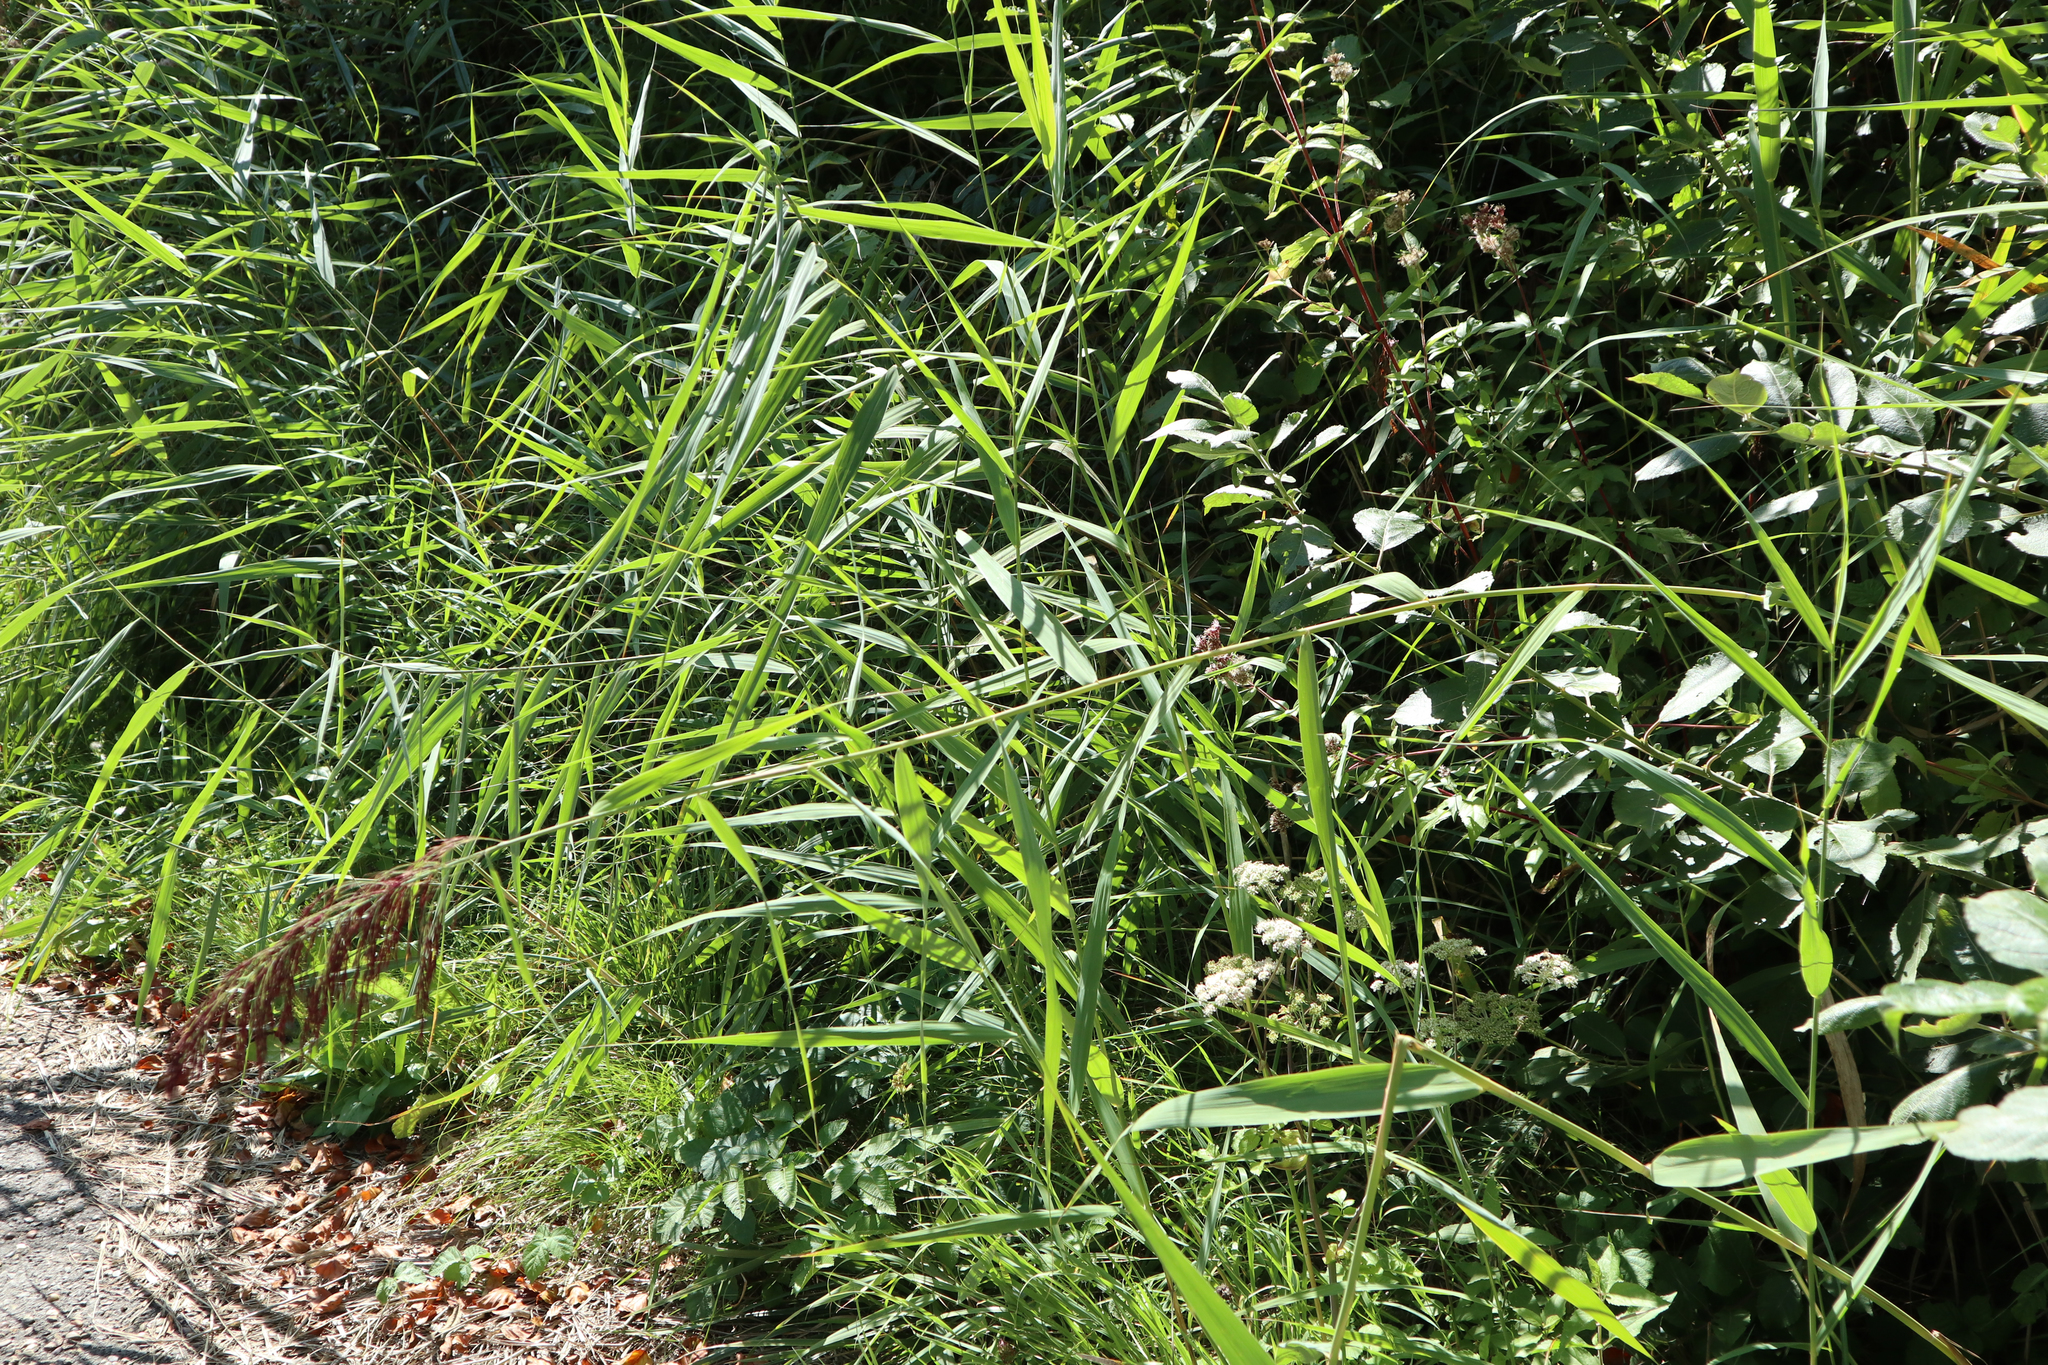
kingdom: Plantae
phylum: Tracheophyta
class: Liliopsida
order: Poales
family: Poaceae
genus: Phragmites
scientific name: Phragmites australis
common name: Common reed
